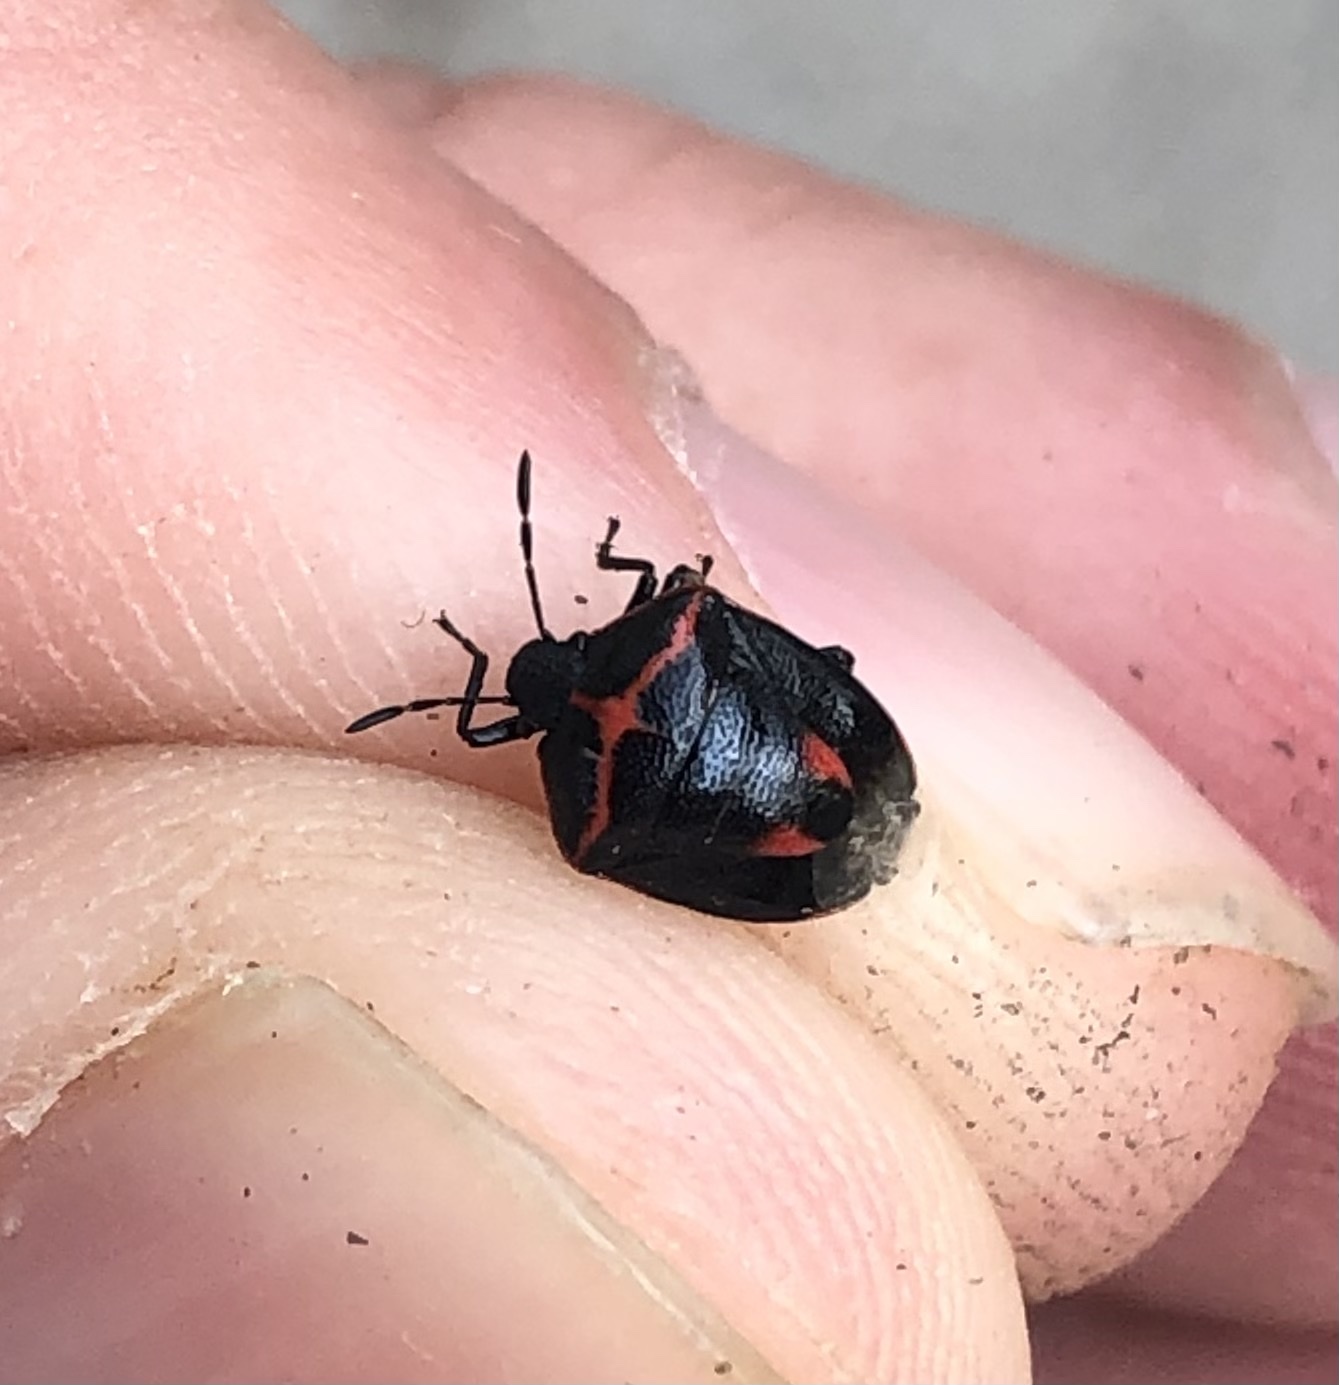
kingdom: Animalia
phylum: Arthropoda
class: Insecta
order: Hemiptera
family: Pentatomidae
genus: Cosmopepla
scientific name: Cosmopepla lintneriana
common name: Twice-stabbed stink bug
